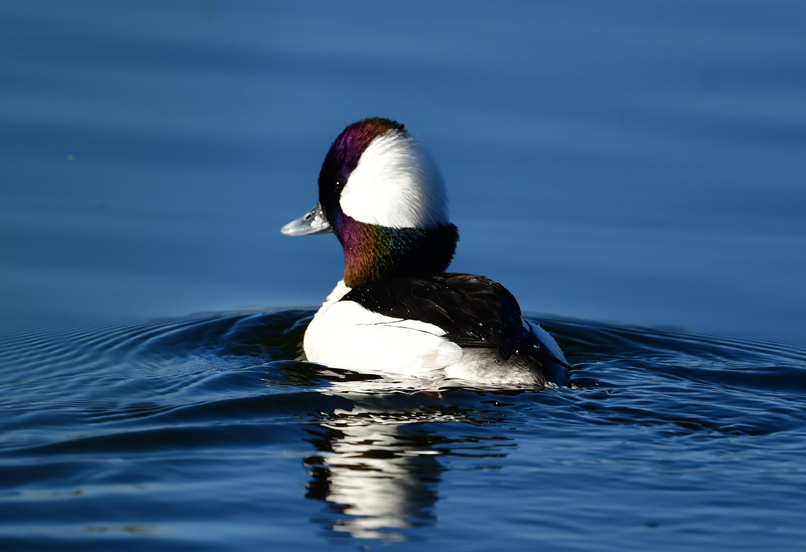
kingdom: Animalia
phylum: Chordata
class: Aves
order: Anseriformes
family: Anatidae
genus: Bucephala
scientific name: Bucephala albeola
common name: Bufflehead
